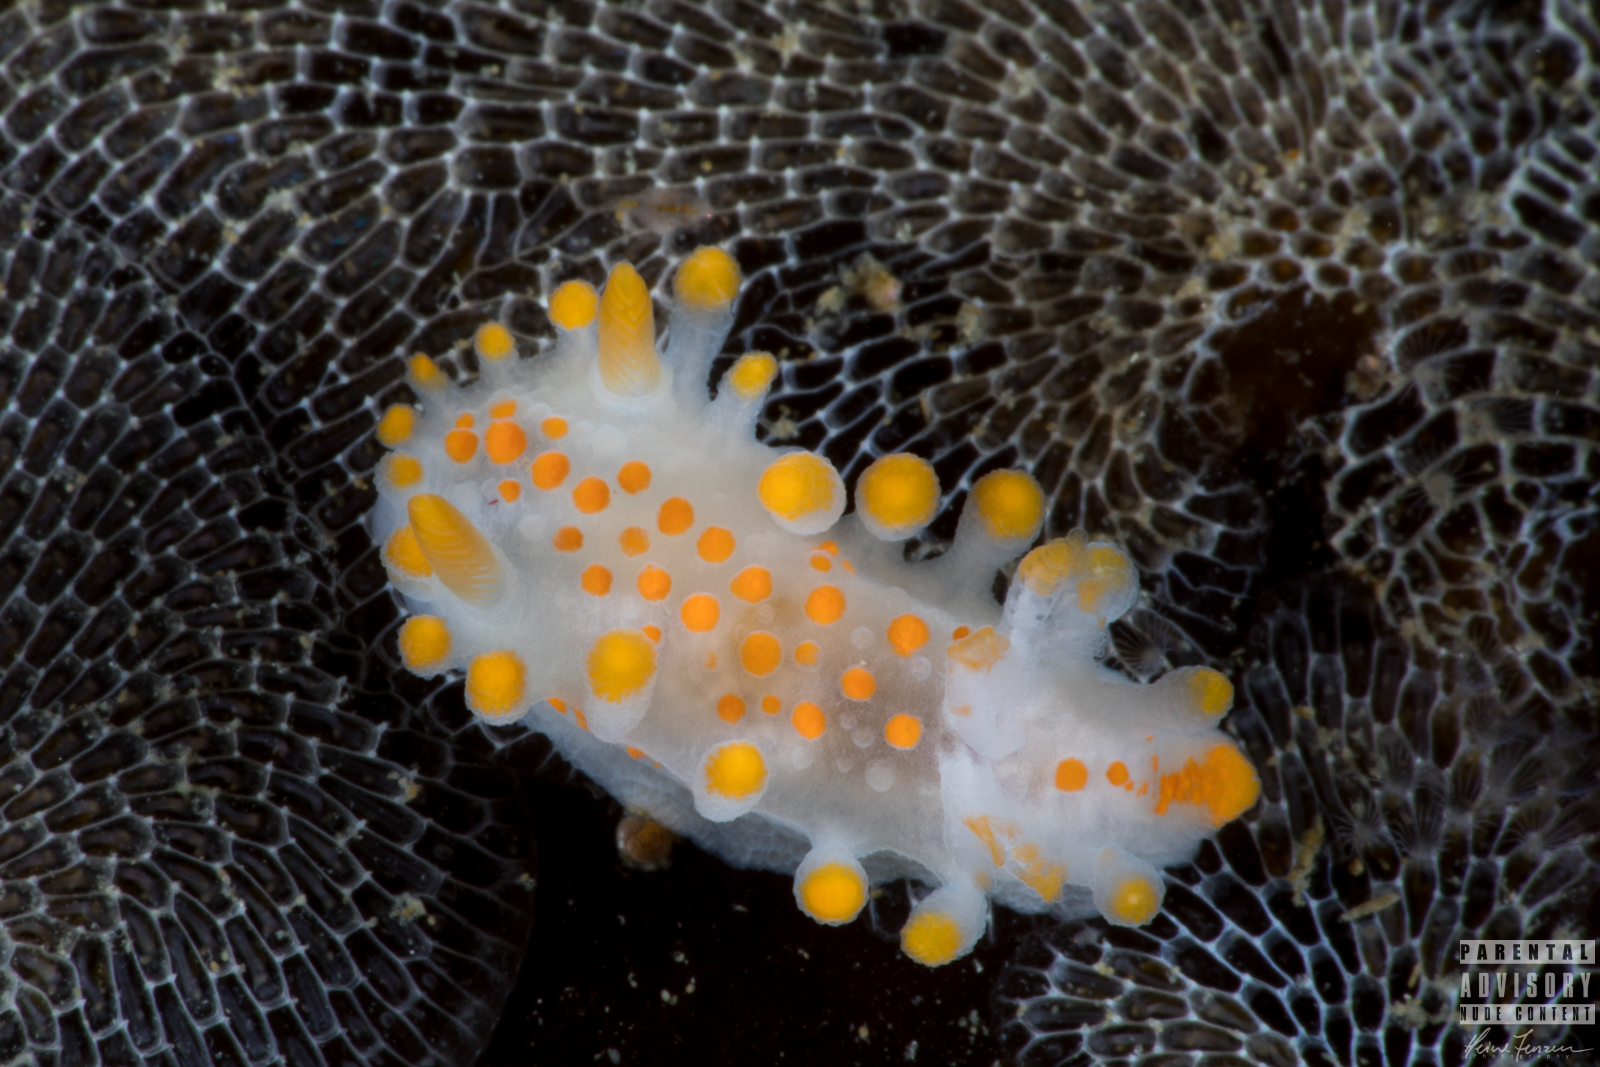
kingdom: Animalia
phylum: Mollusca
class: Gastropoda
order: Nudibranchia
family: Polyceridae
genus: Limacia
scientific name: Limacia clavigera
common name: Orange-clubbed sea slug
